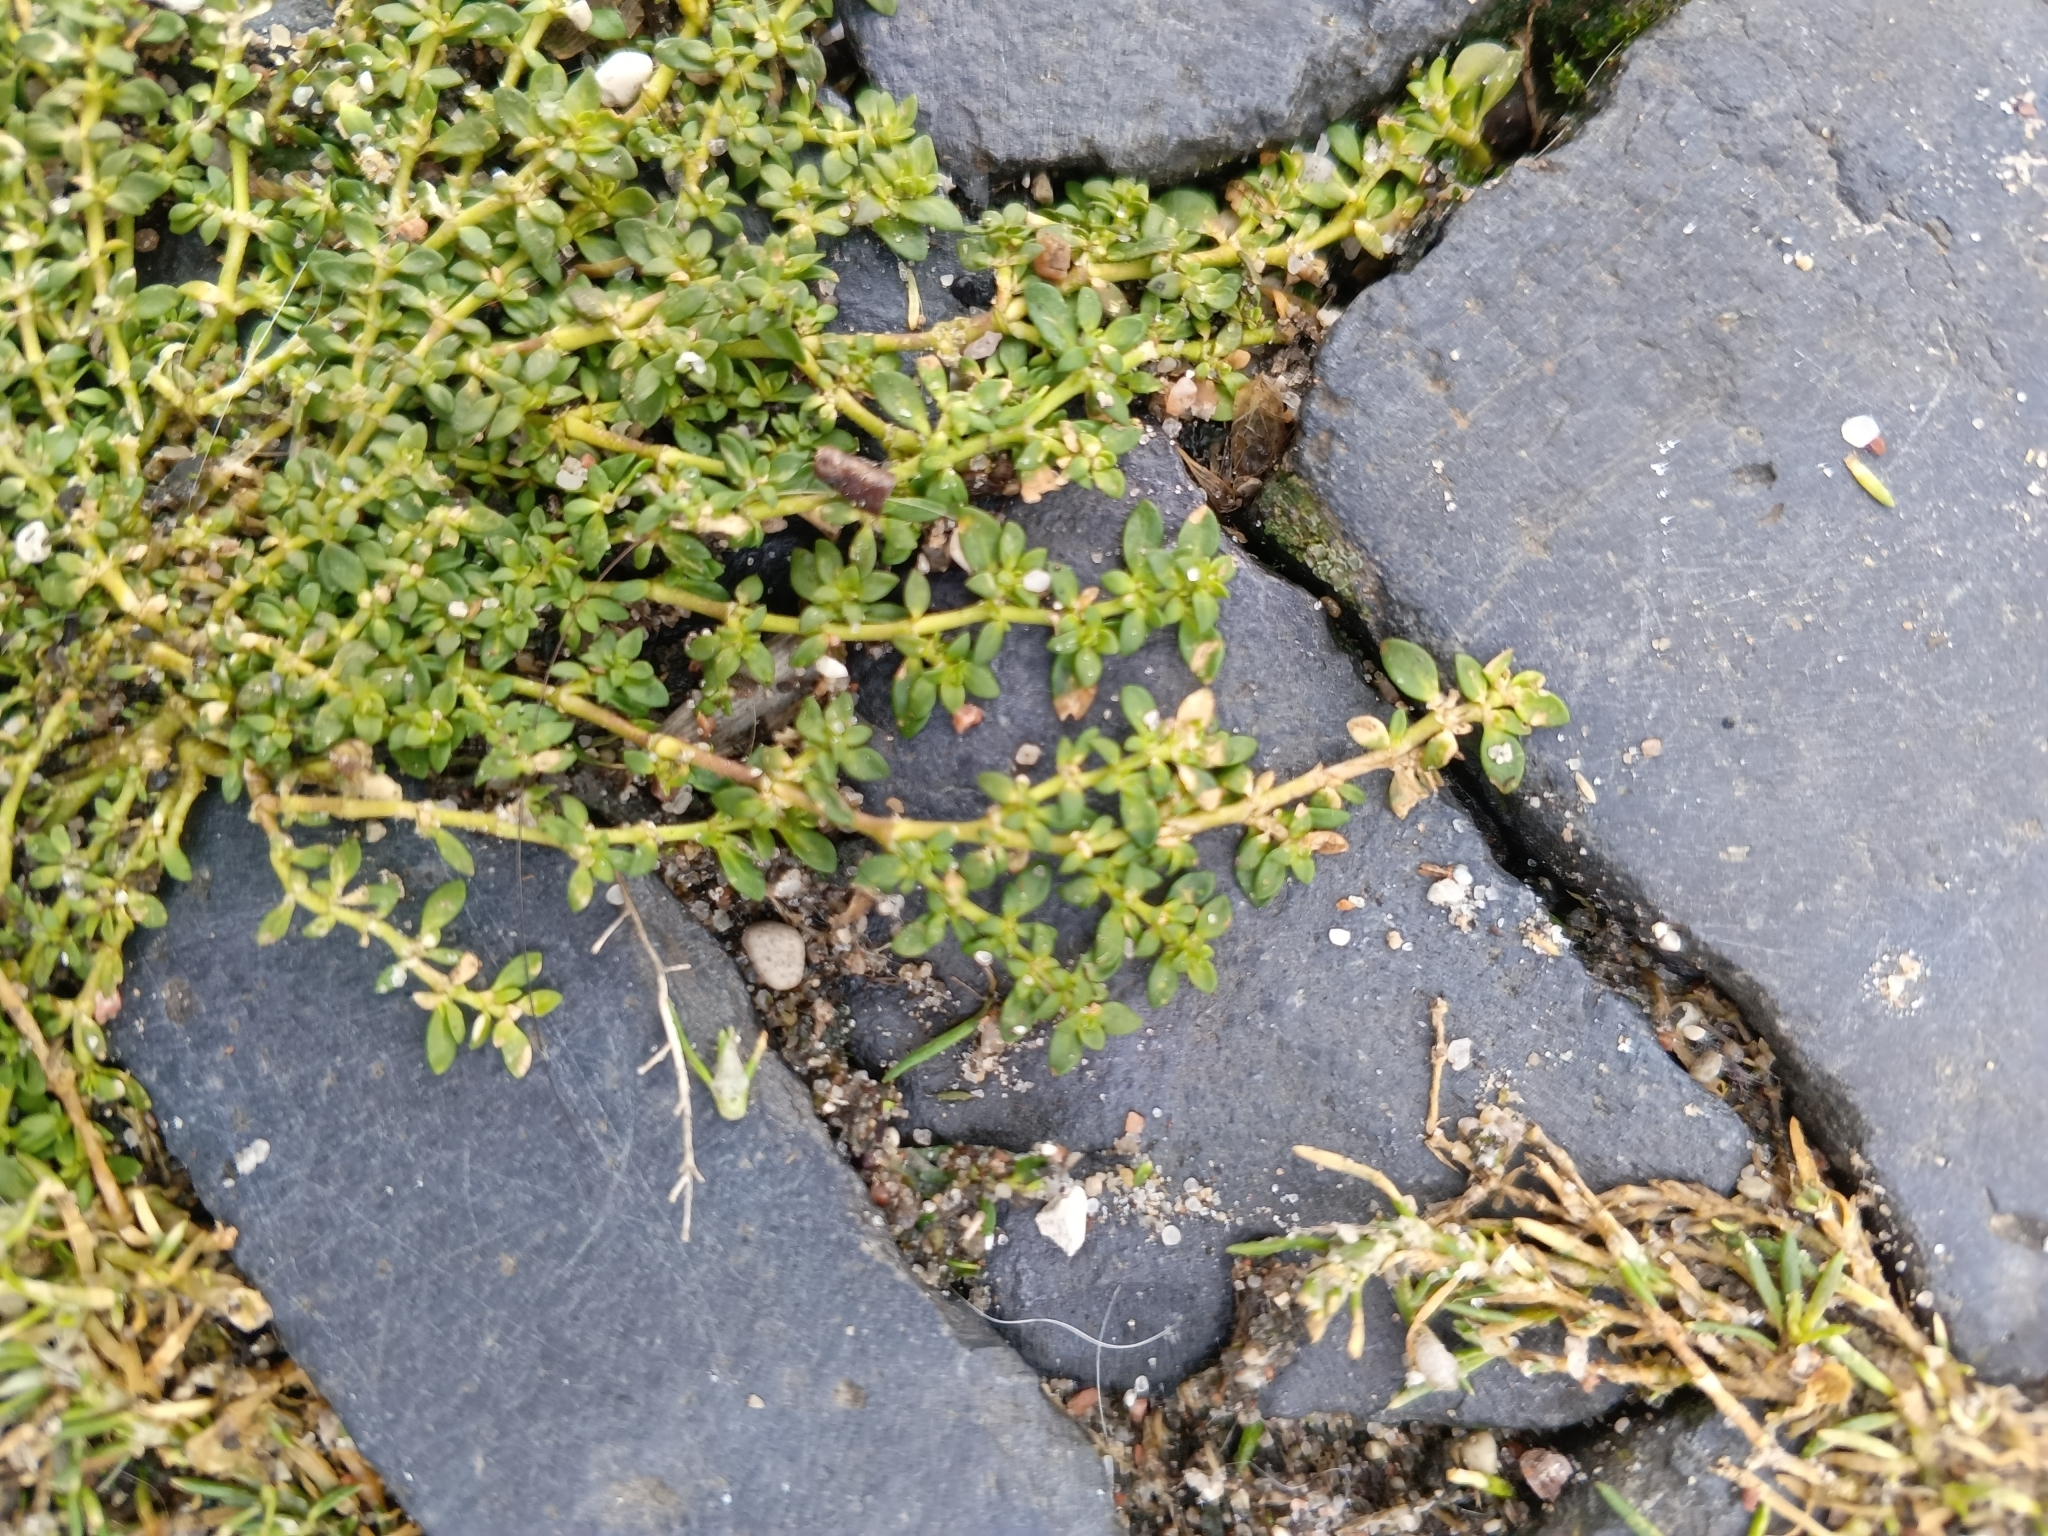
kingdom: Plantae
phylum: Tracheophyta
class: Magnoliopsida
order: Caryophyllales
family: Caryophyllaceae
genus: Herniaria
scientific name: Herniaria glabra
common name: Smooth rupturewort
